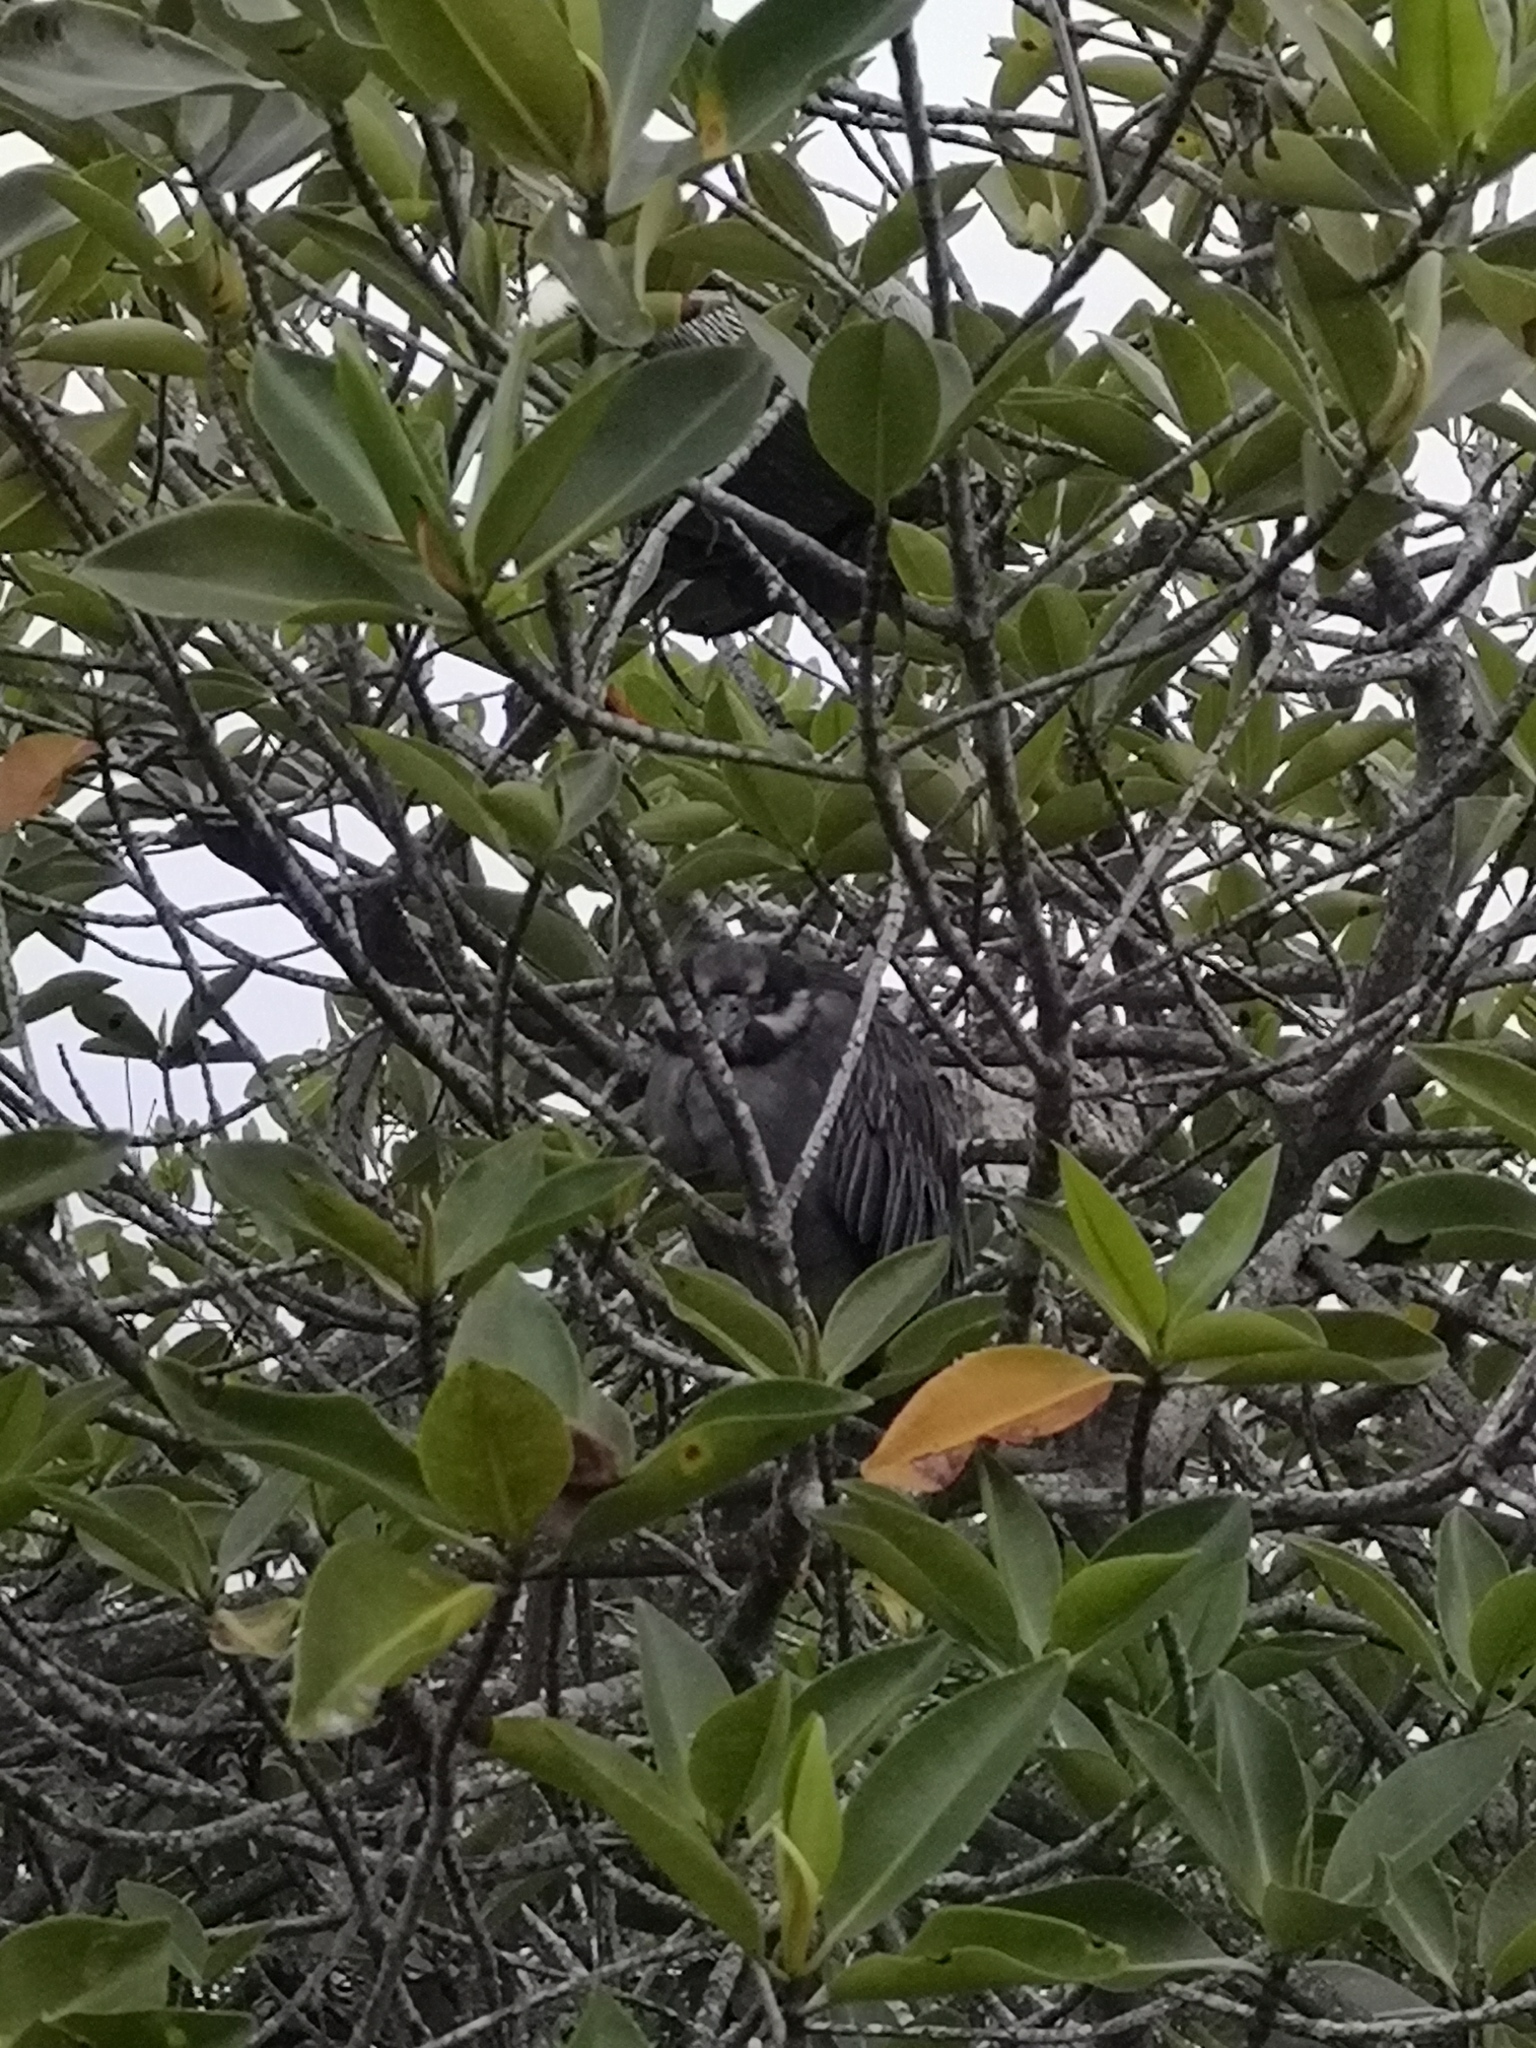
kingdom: Animalia
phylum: Chordata
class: Aves
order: Pelecaniformes
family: Ardeidae
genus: Nyctanassa
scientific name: Nyctanassa violacea
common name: Yellow-crowned night heron
